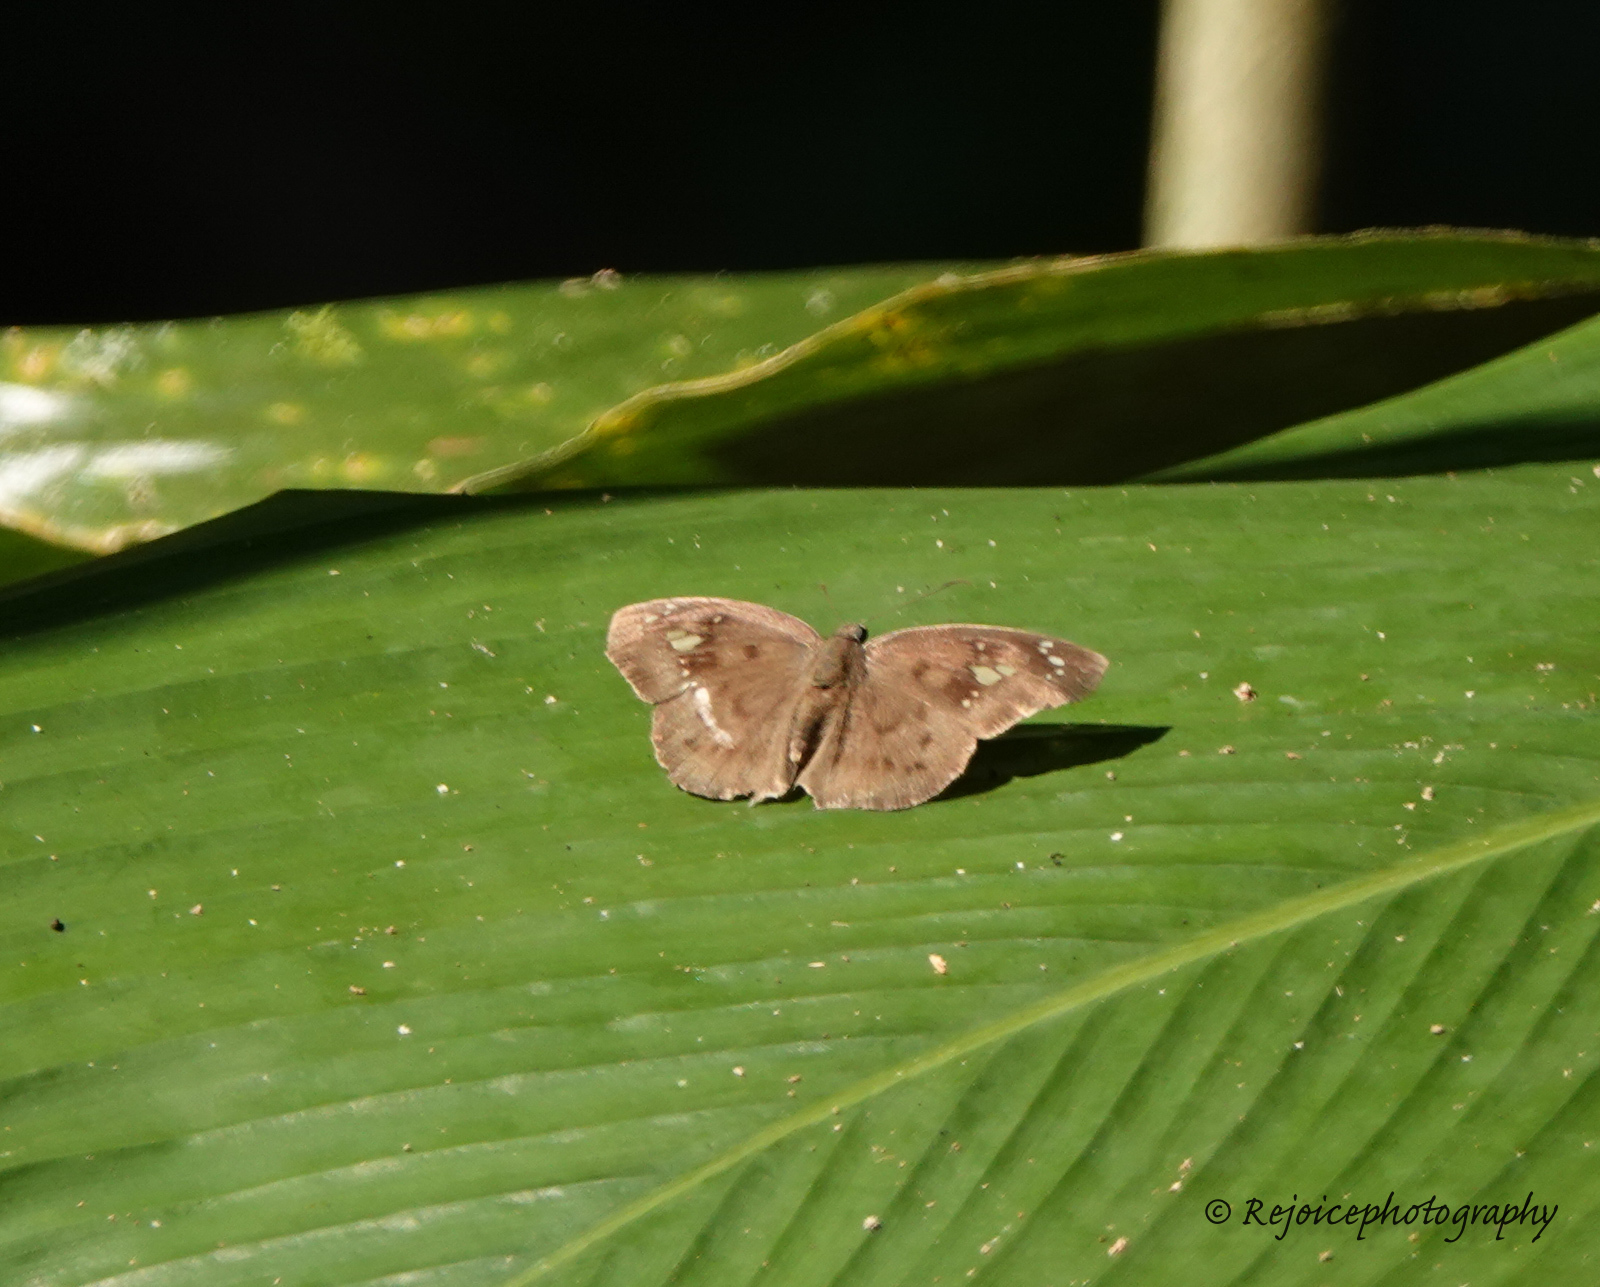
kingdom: Animalia
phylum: Arthropoda
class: Insecta
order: Lepidoptera
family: Hesperiidae
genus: Tagiades
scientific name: Tagiades japetus
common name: Pied flat
